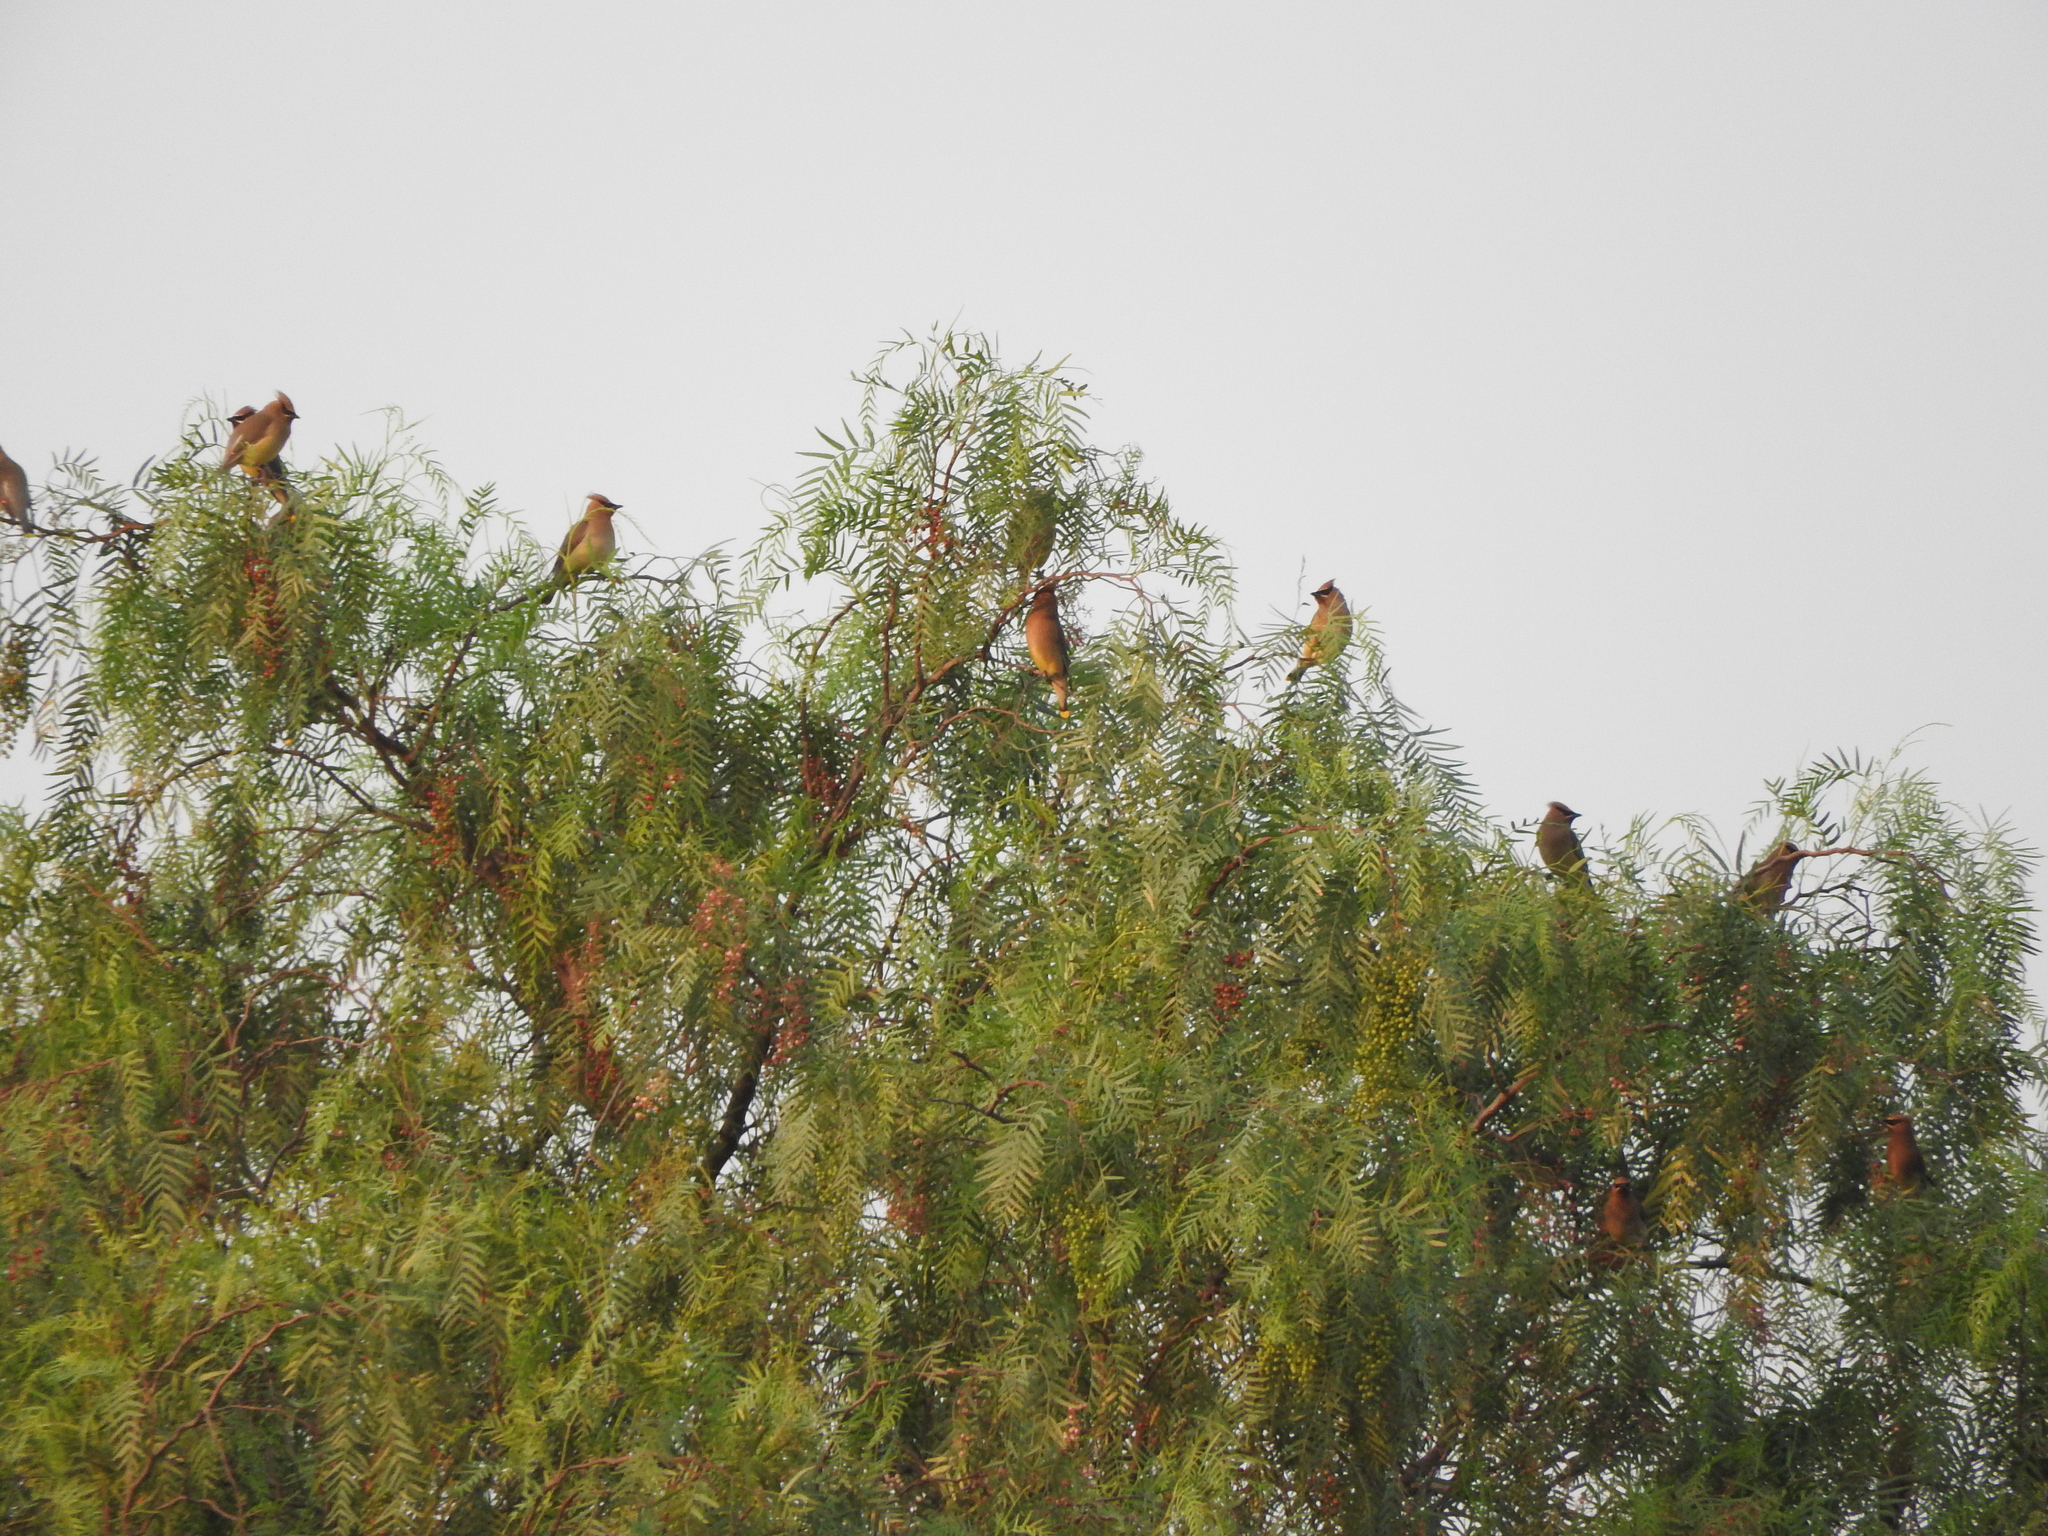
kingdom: Animalia
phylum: Chordata
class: Aves
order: Passeriformes
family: Bombycillidae
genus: Bombycilla
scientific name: Bombycilla cedrorum
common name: Cedar waxwing
